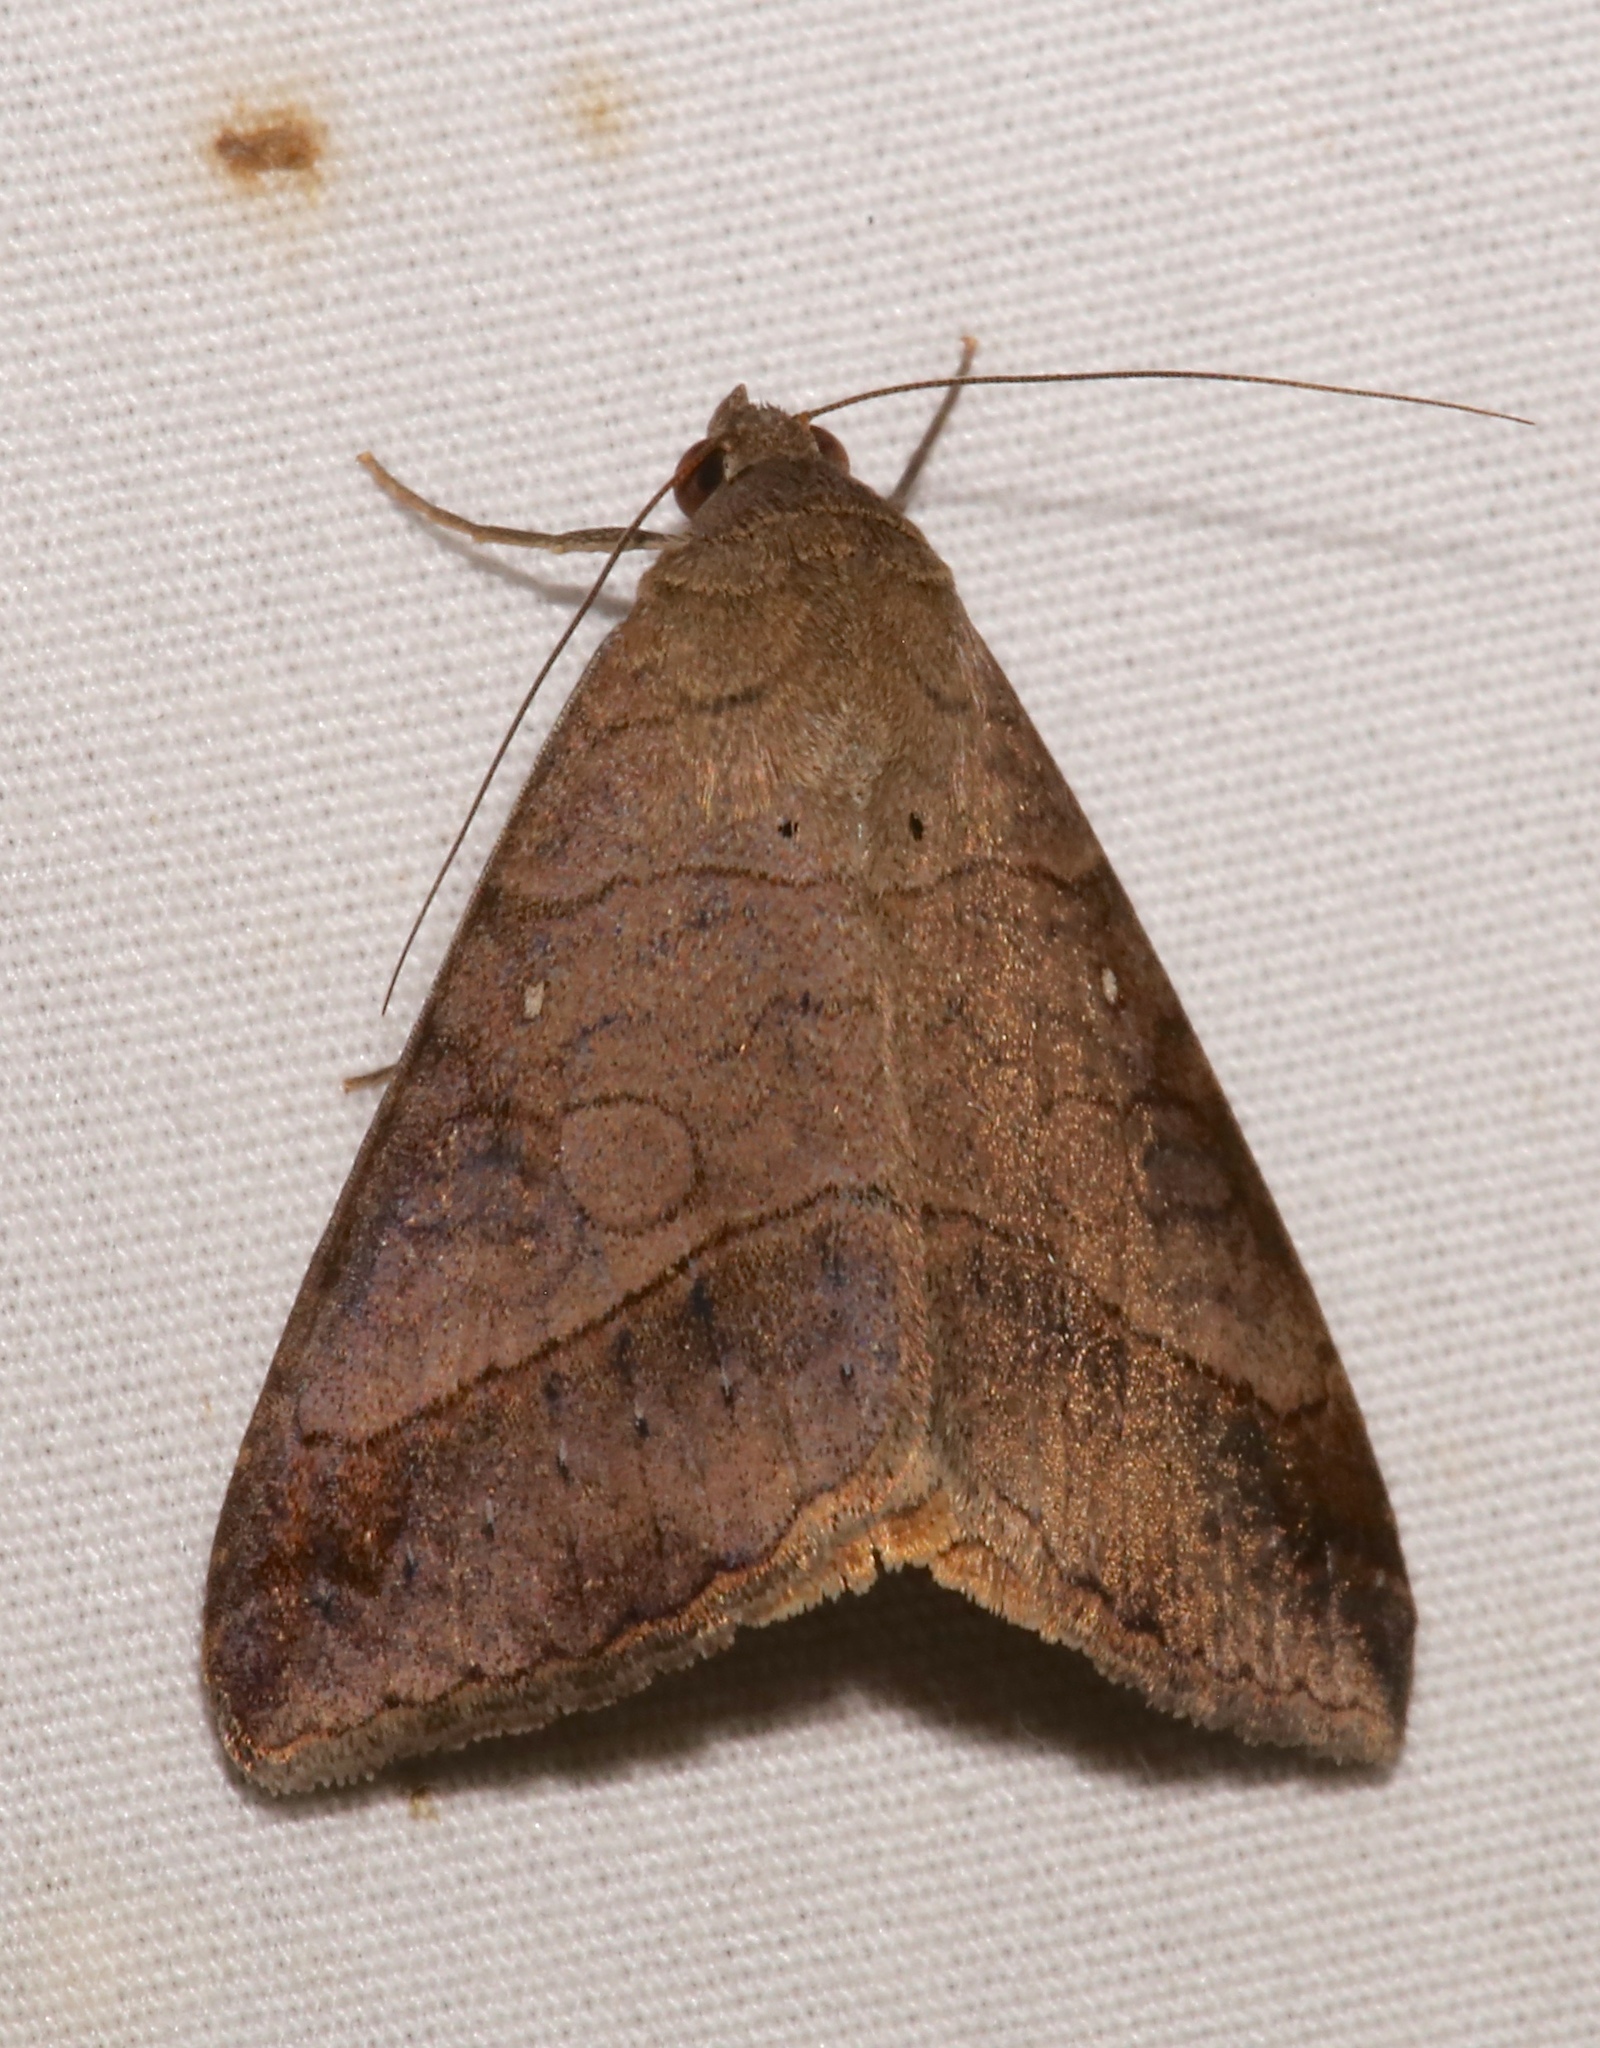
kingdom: Animalia
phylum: Arthropoda
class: Insecta
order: Lepidoptera
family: Erebidae
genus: Mocis
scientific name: Mocis latipes
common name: Striped grass looper
